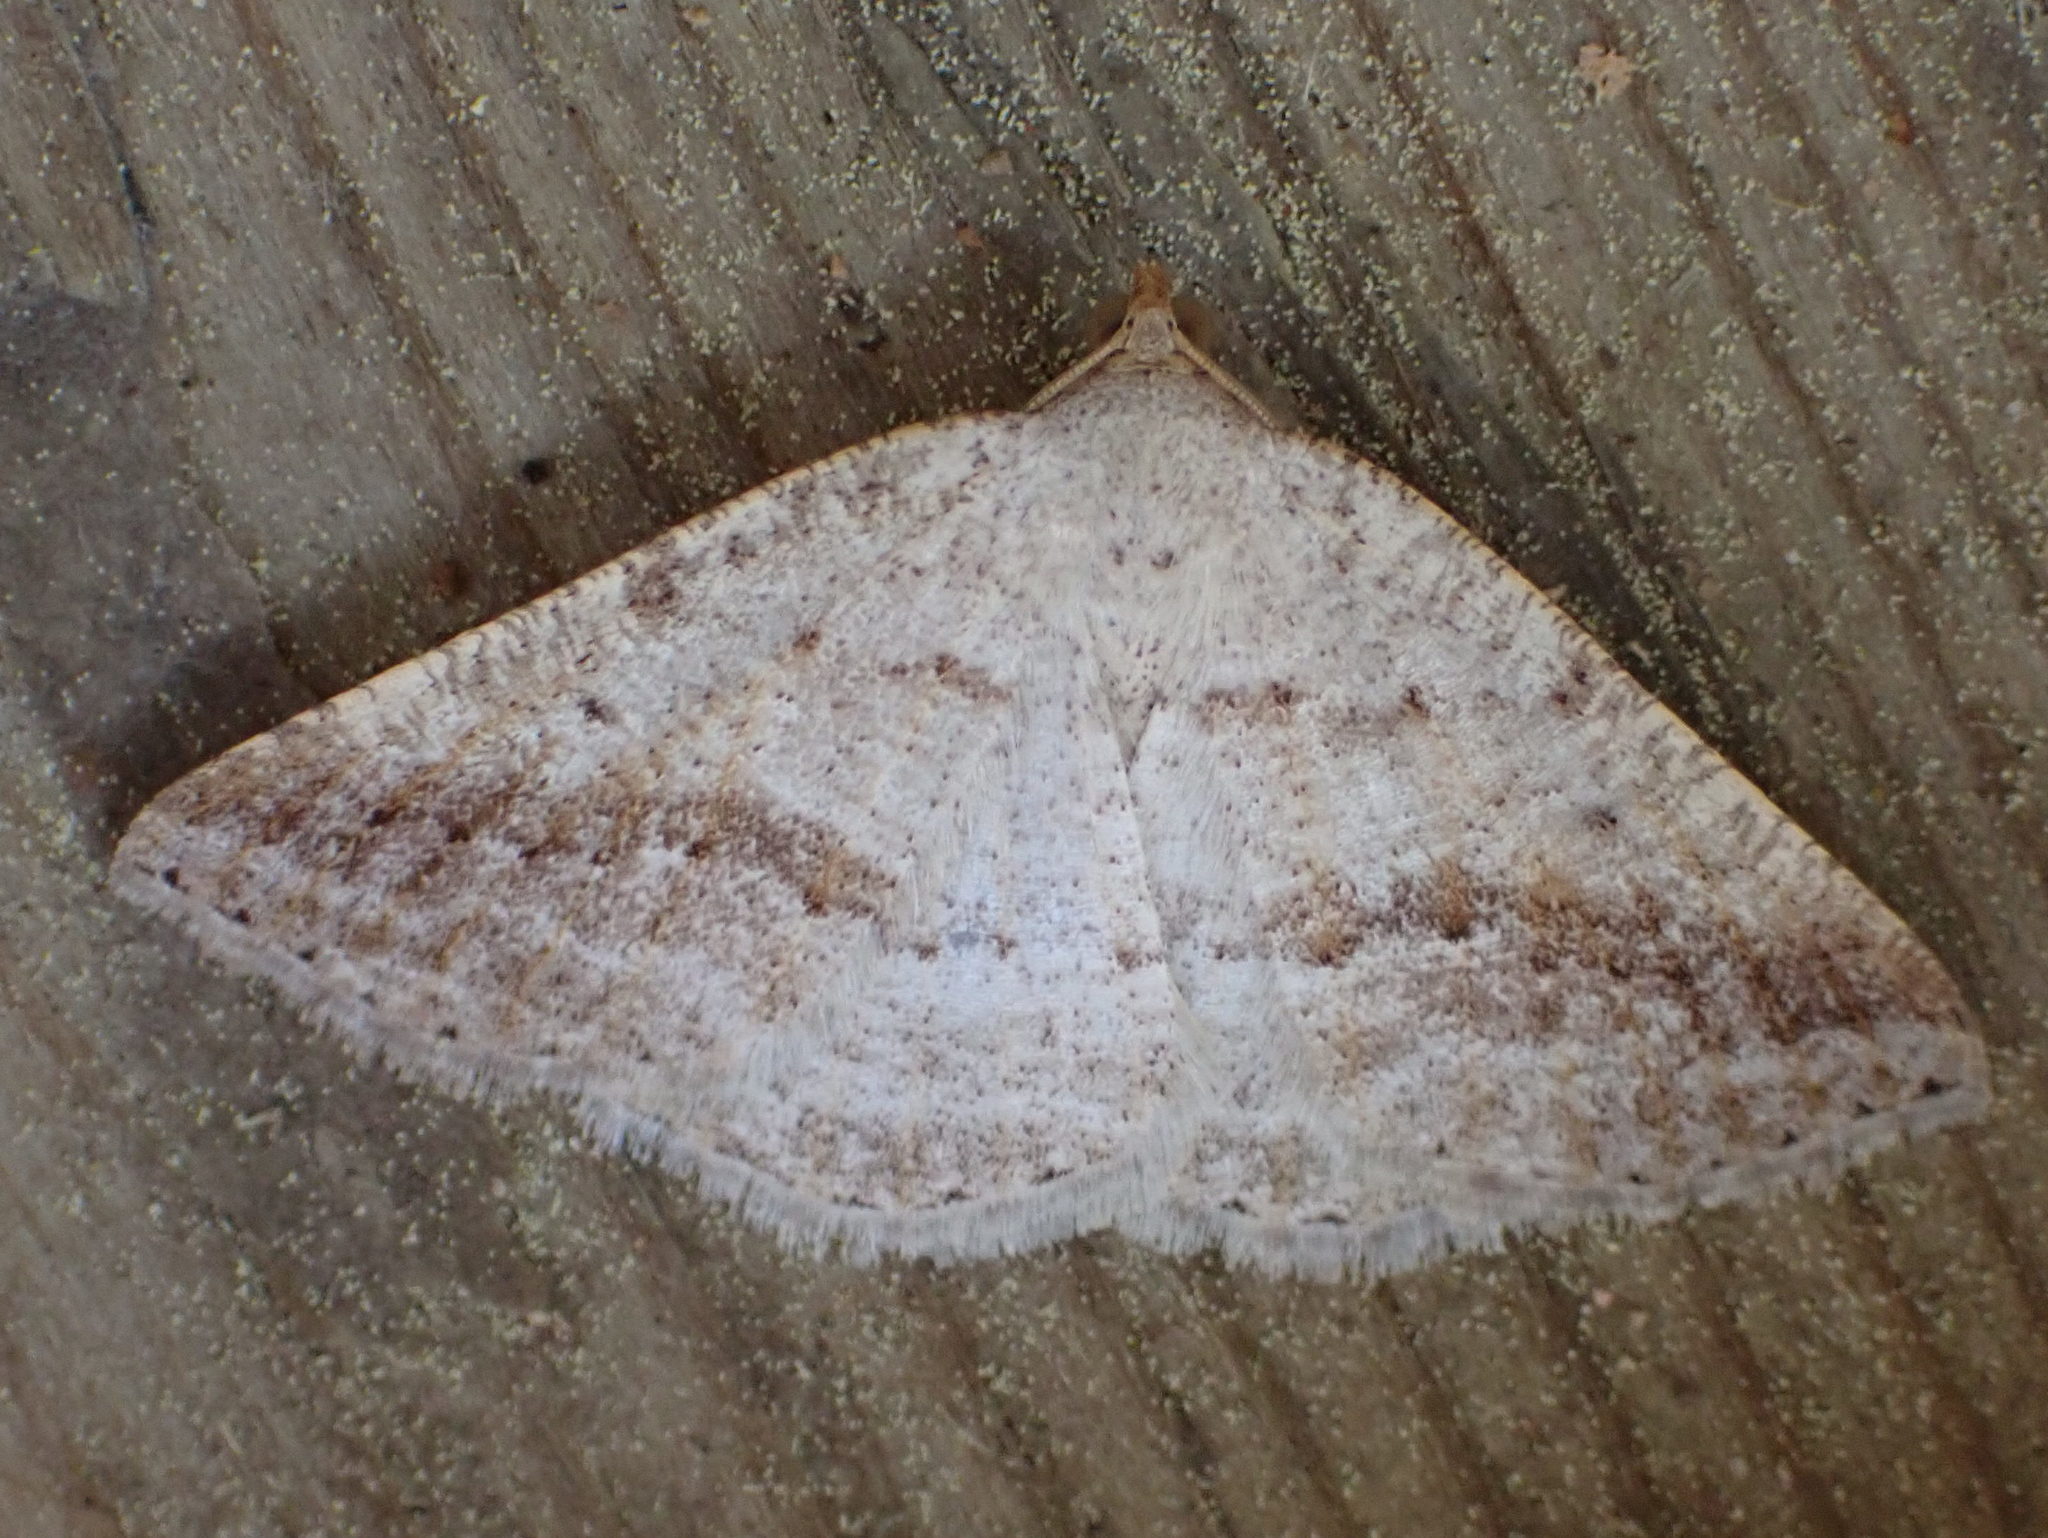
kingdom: Animalia
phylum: Arthropoda
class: Insecta
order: Lepidoptera
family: Geometridae
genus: Tacparia
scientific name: Tacparia detersata
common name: Pale alder moth
